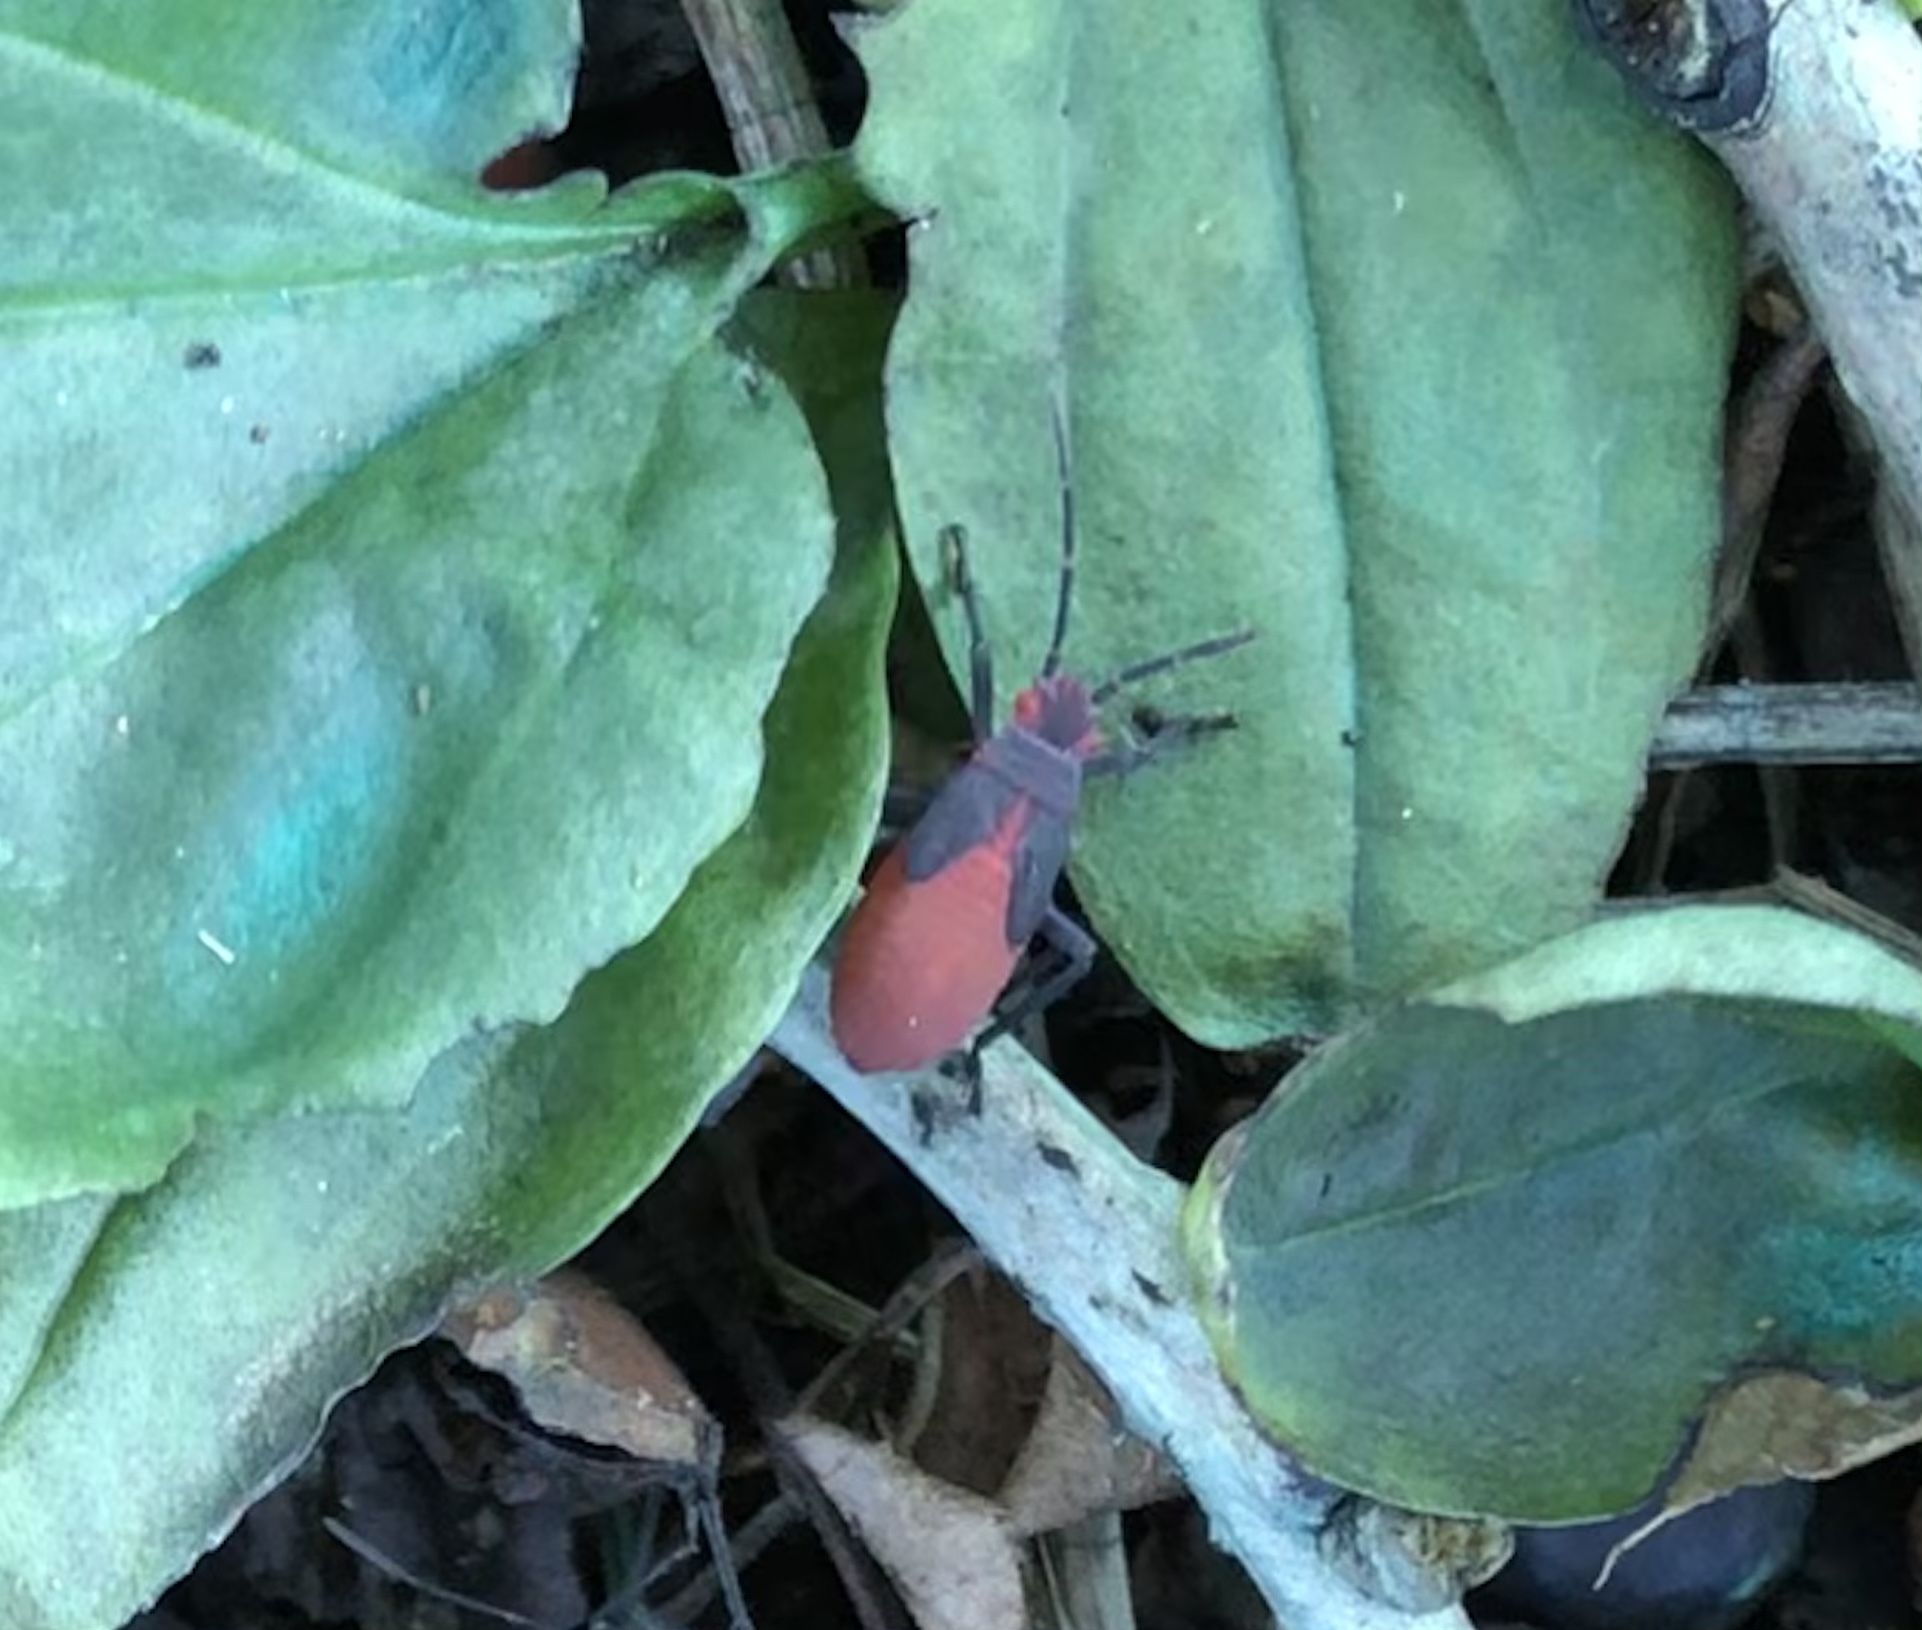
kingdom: Animalia
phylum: Arthropoda
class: Insecta
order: Hemiptera
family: Rhopalidae
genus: Jadera
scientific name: Jadera haematoloma
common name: Red-shouldered bug
